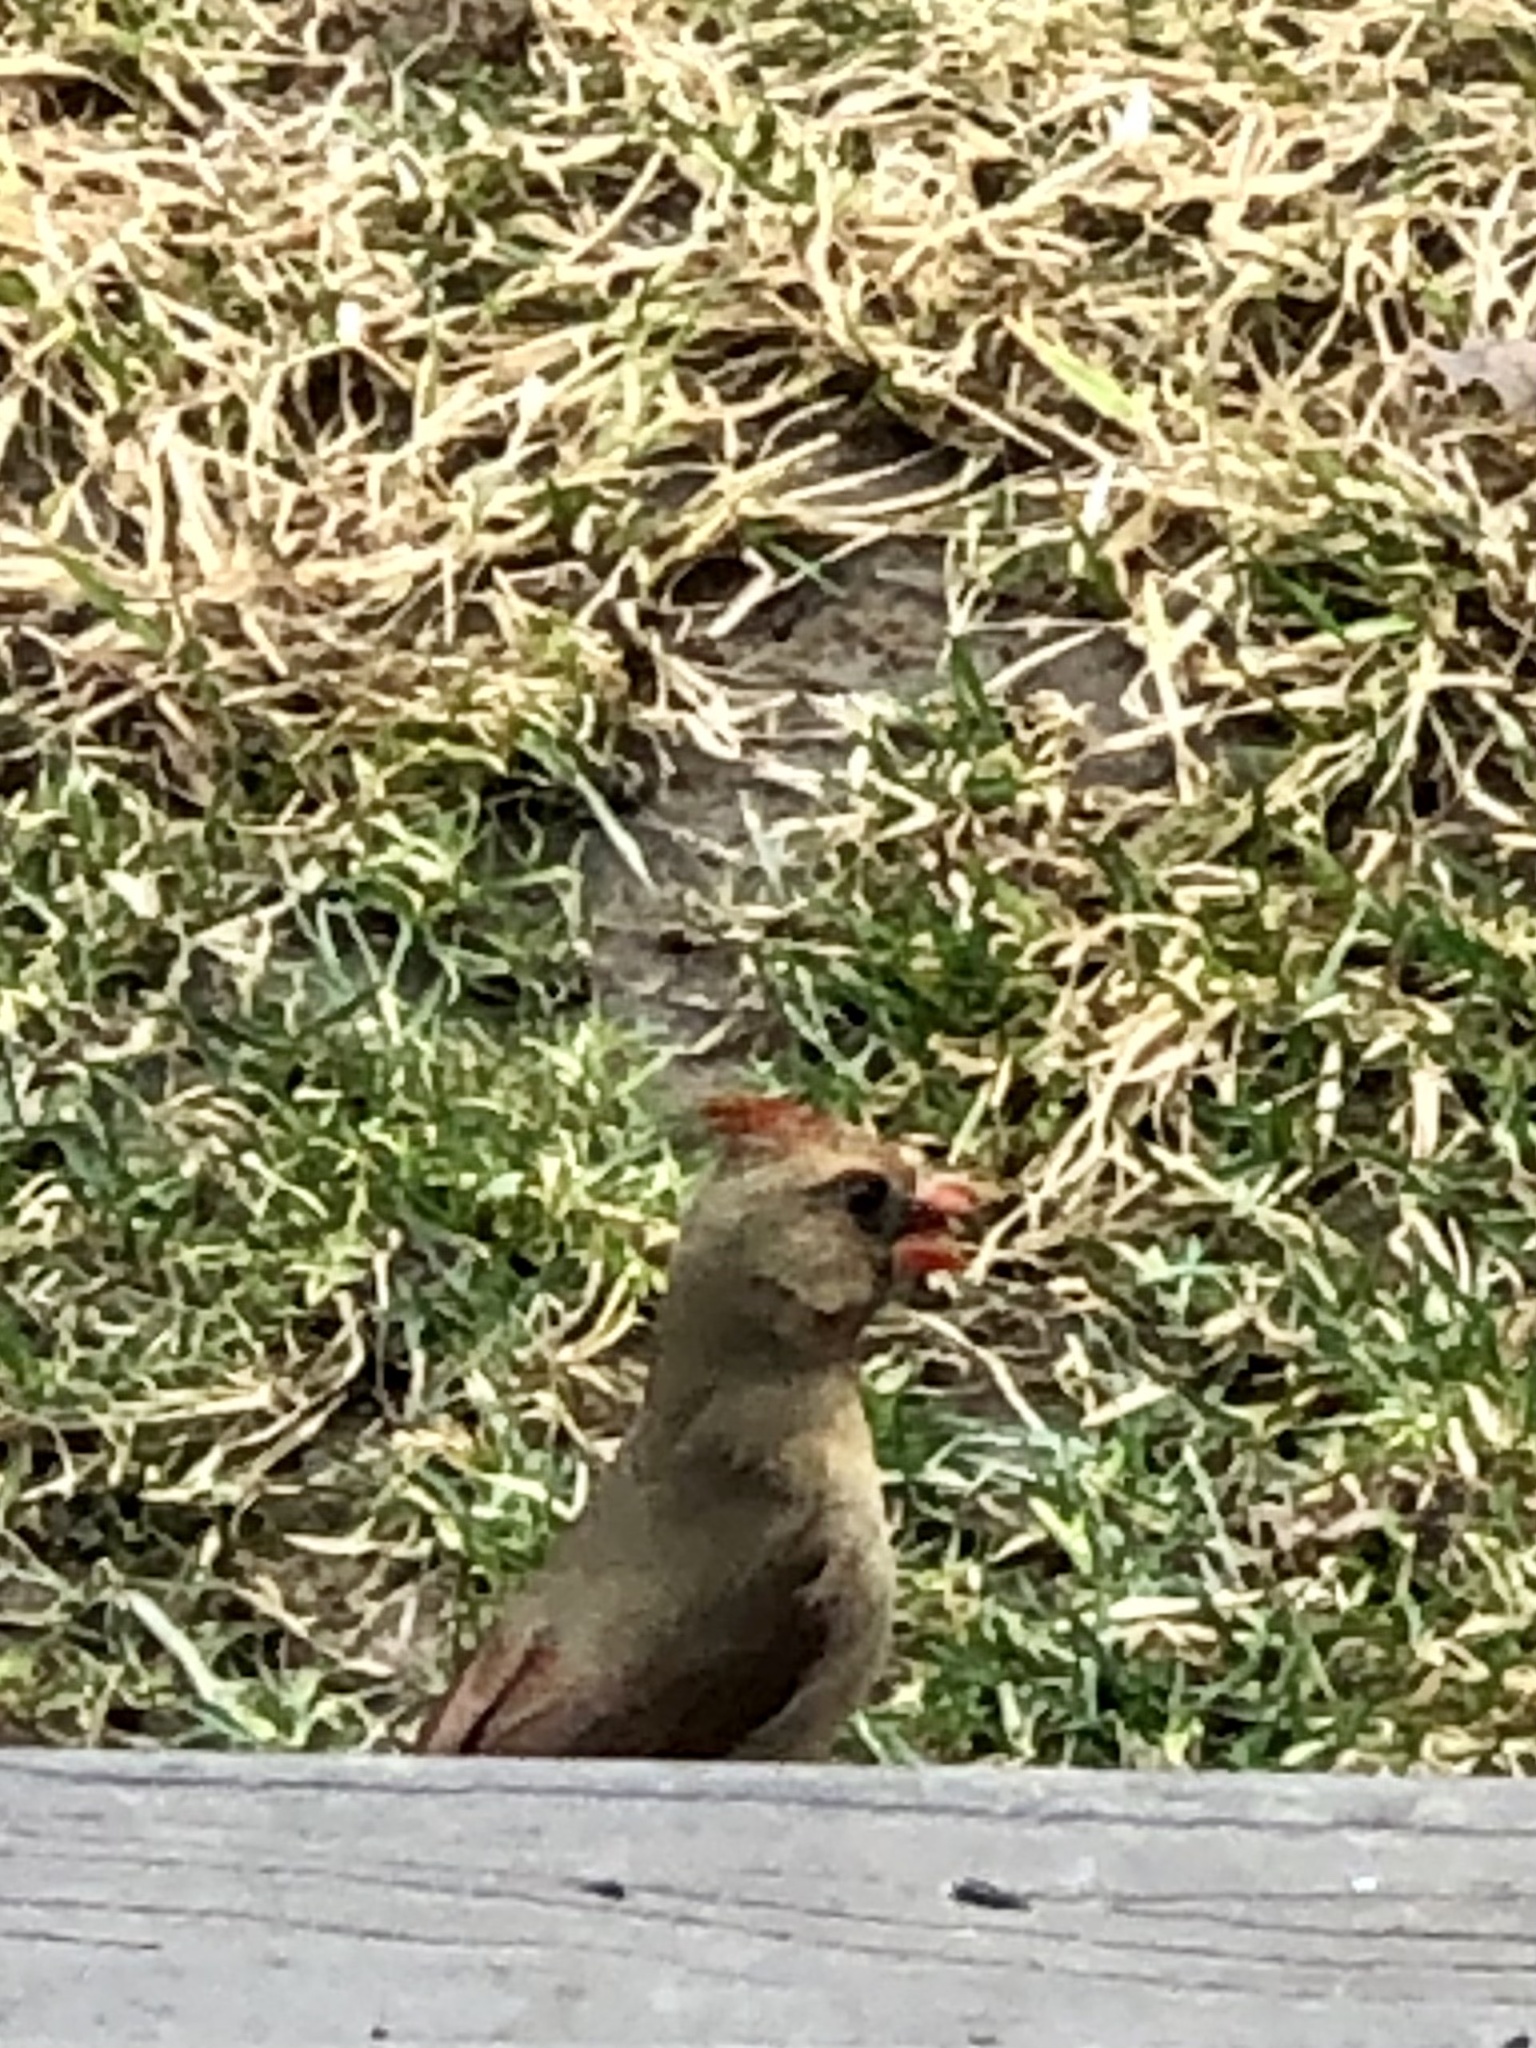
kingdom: Animalia
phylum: Chordata
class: Aves
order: Passeriformes
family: Cardinalidae
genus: Cardinalis
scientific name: Cardinalis cardinalis
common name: Northern cardinal
